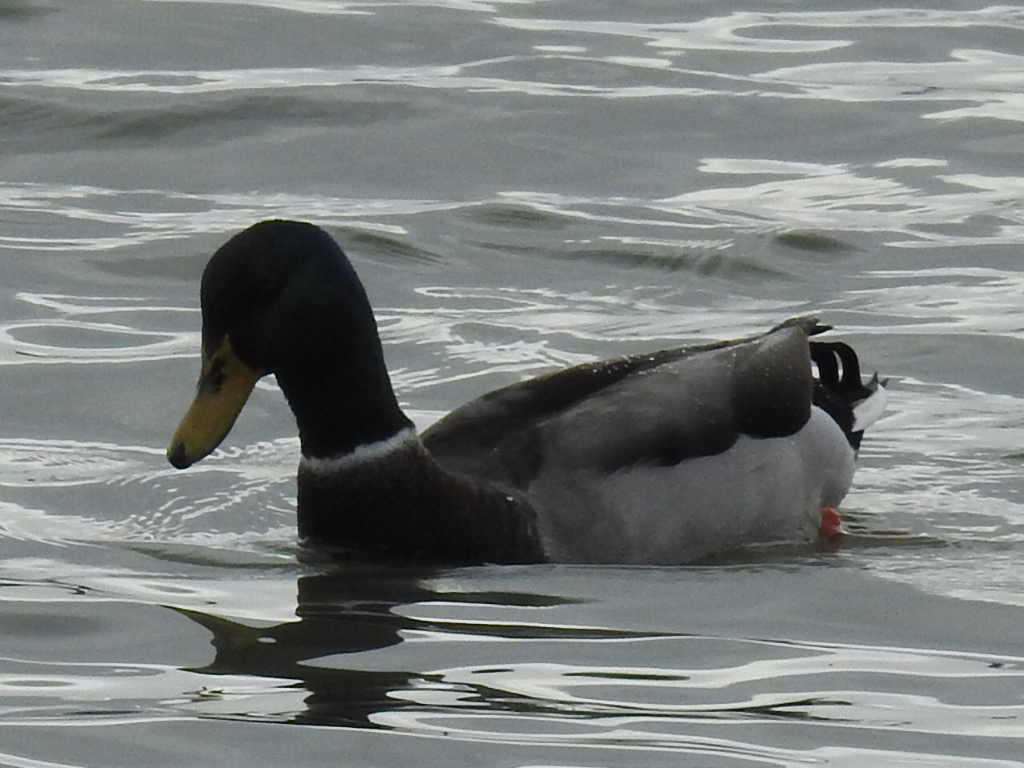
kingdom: Animalia
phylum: Chordata
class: Aves
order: Anseriformes
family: Anatidae
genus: Anas
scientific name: Anas platyrhynchos
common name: Mallard
